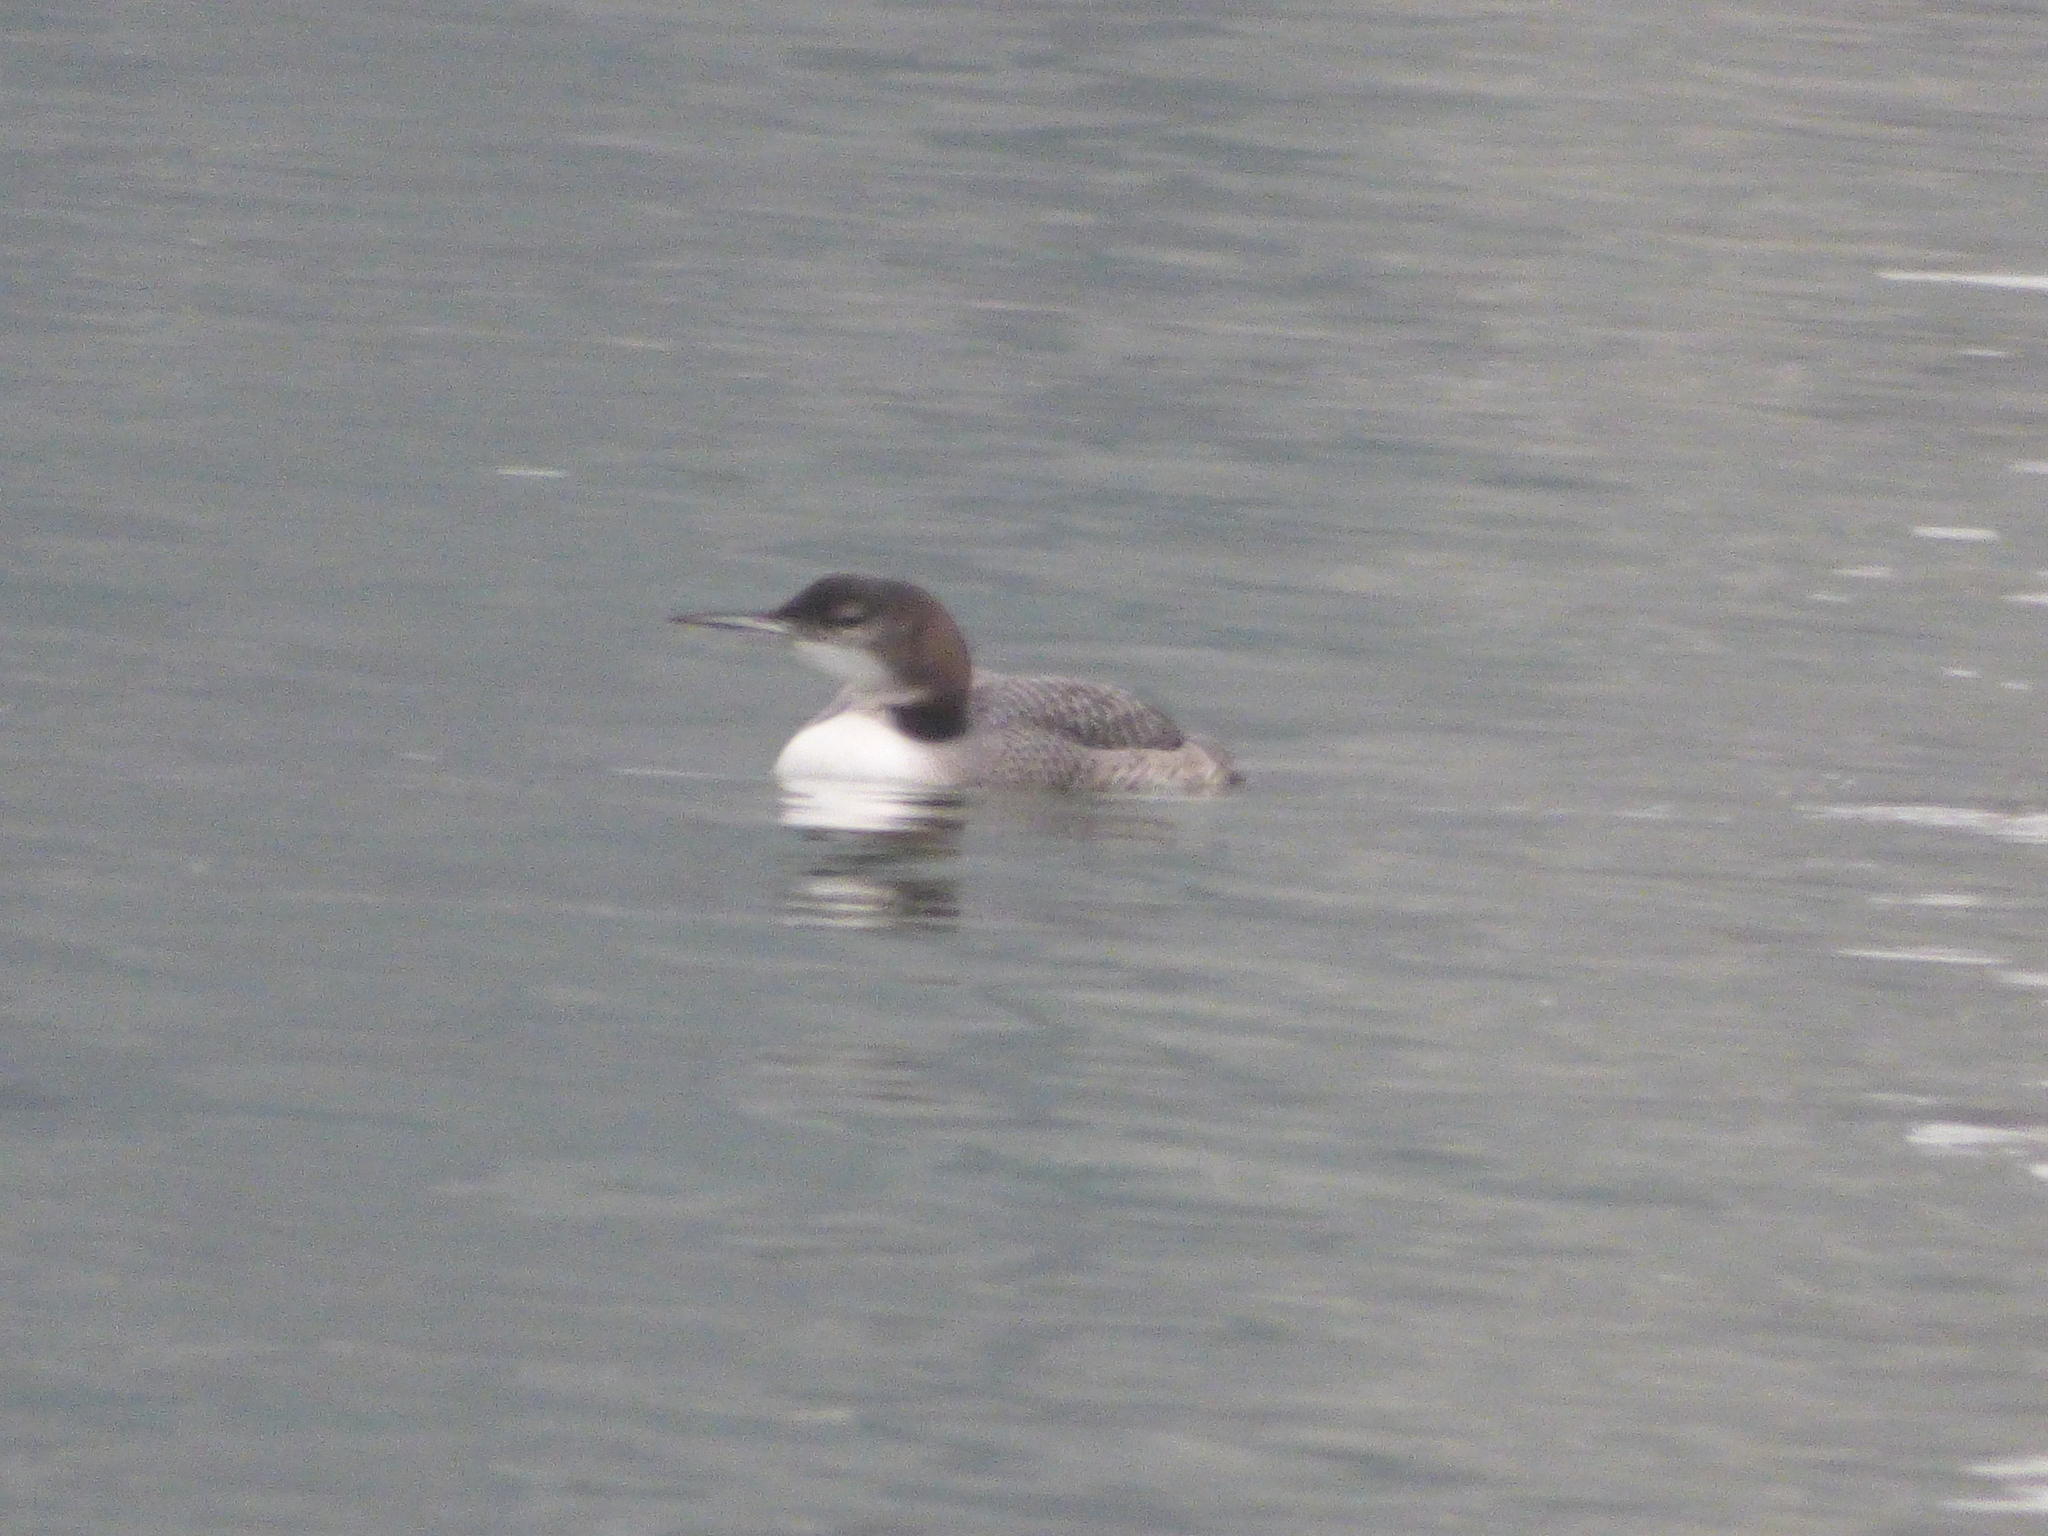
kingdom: Animalia
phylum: Chordata
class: Aves
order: Gaviiformes
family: Gaviidae
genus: Gavia
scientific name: Gavia immer
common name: Common loon
